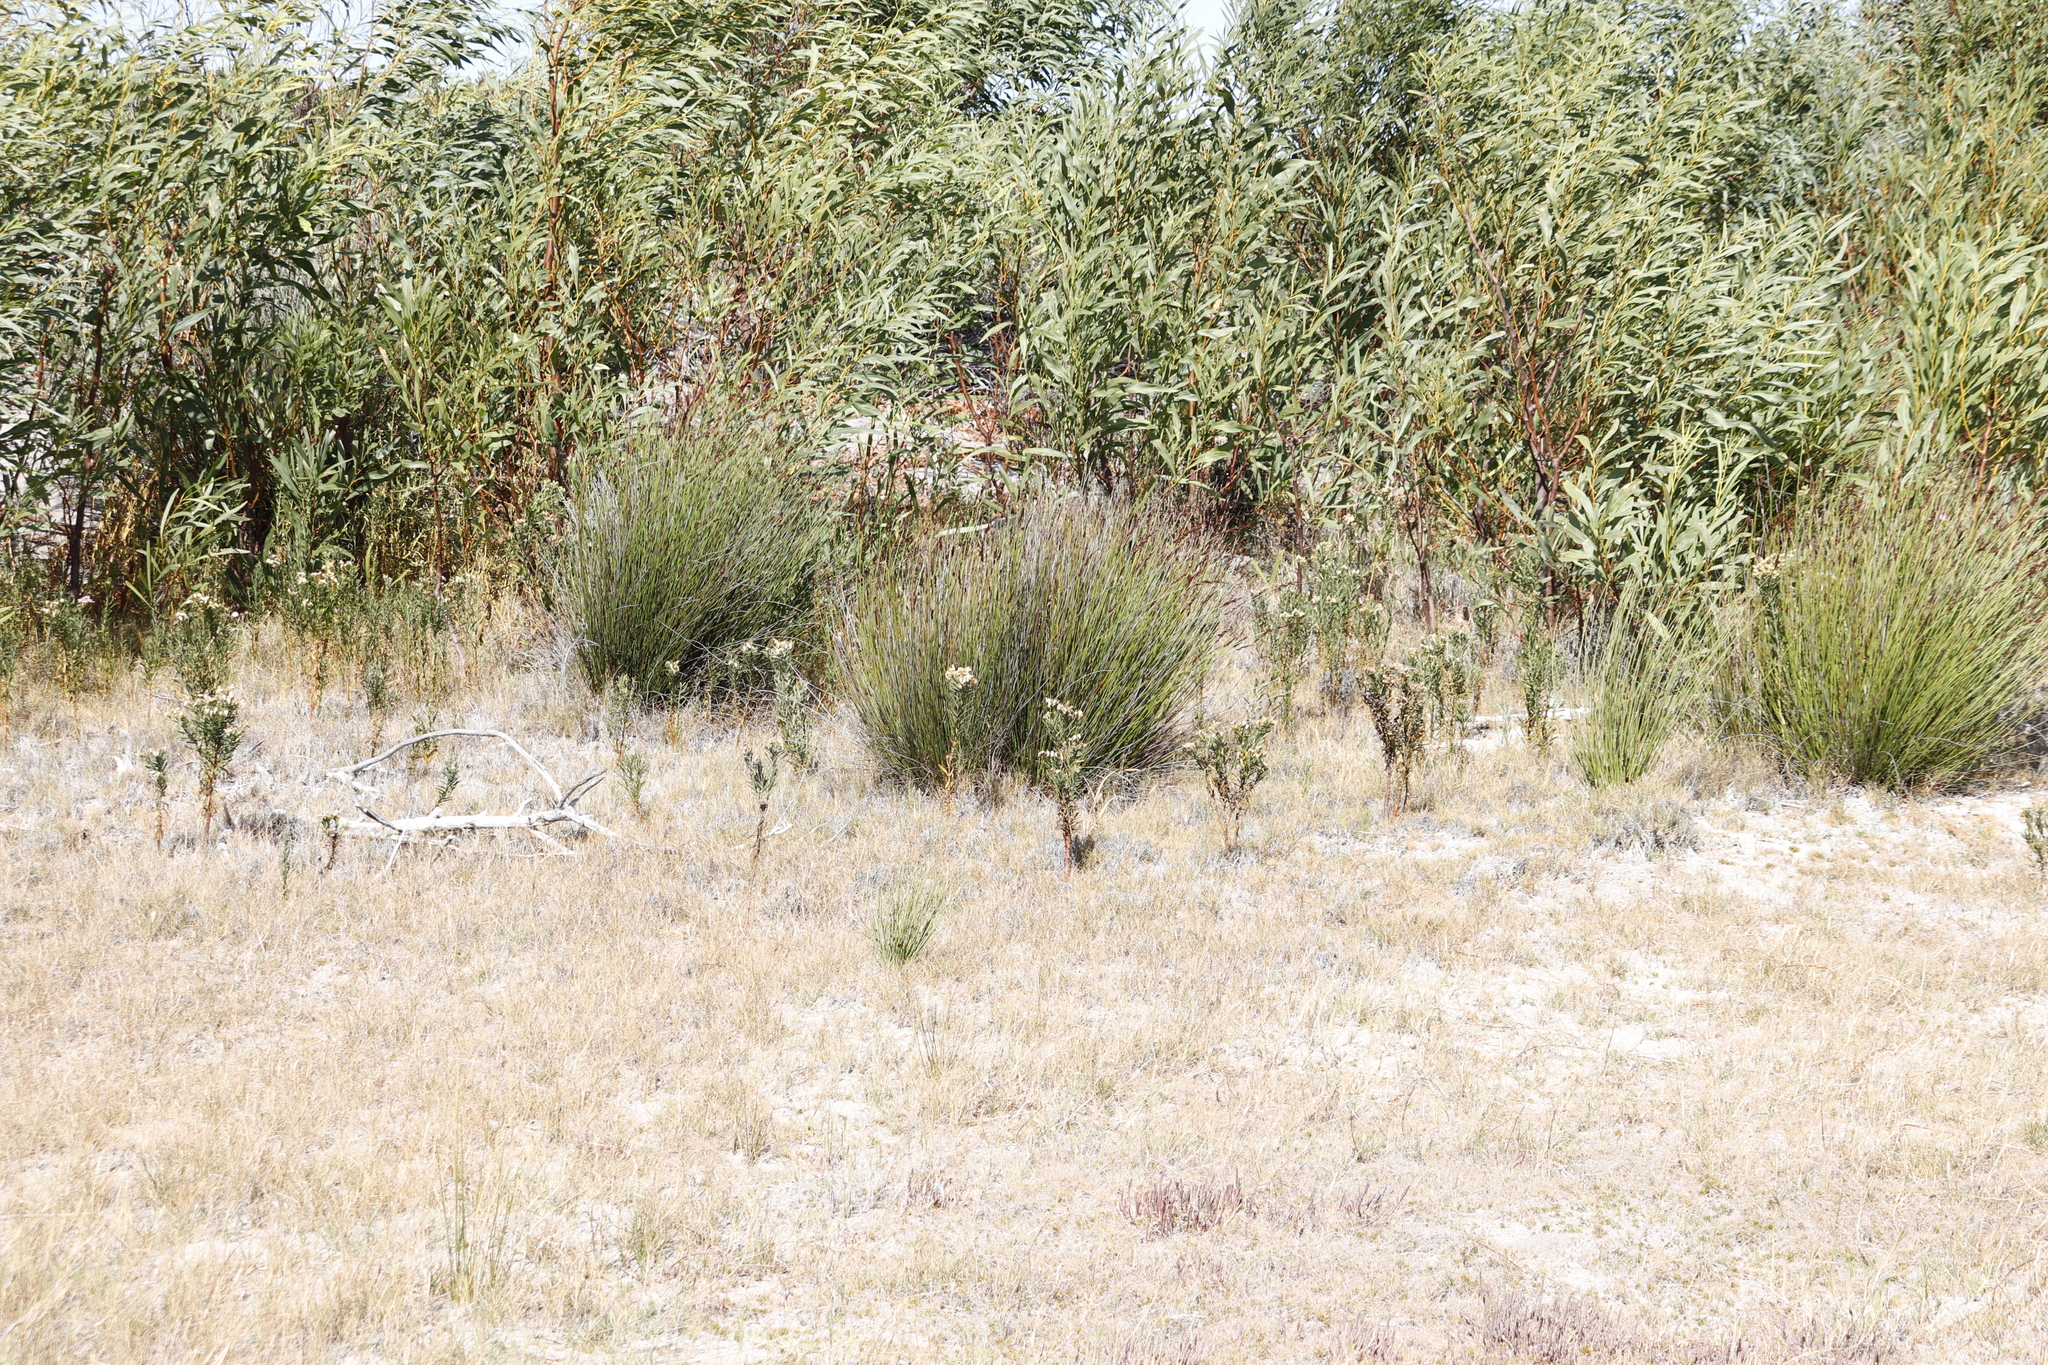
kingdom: Plantae
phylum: Tracheophyta
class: Magnoliopsida
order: Gentianales
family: Gentianaceae
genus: Orphium
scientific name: Orphium frutescens
